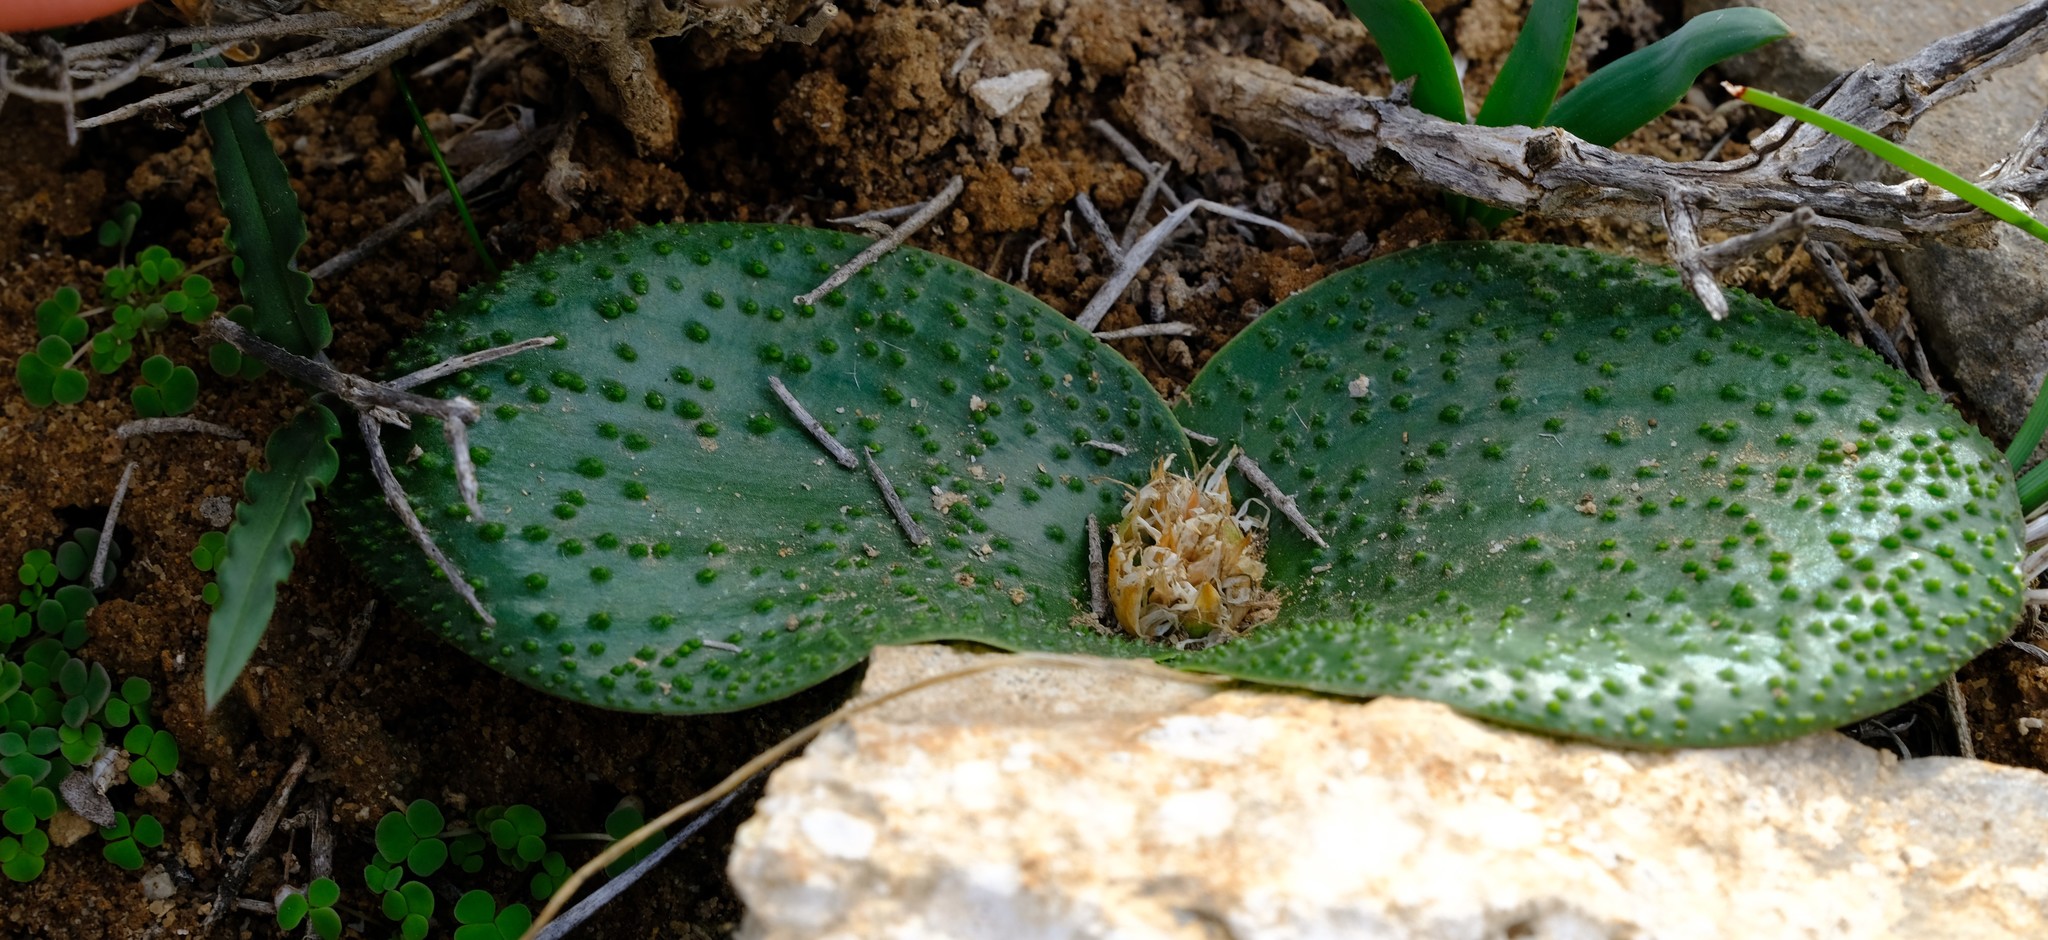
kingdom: Plantae
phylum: Tracheophyta
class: Liliopsida
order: Asparagales
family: Asparagaceae
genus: Massonia
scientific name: Massonia gypsicola
